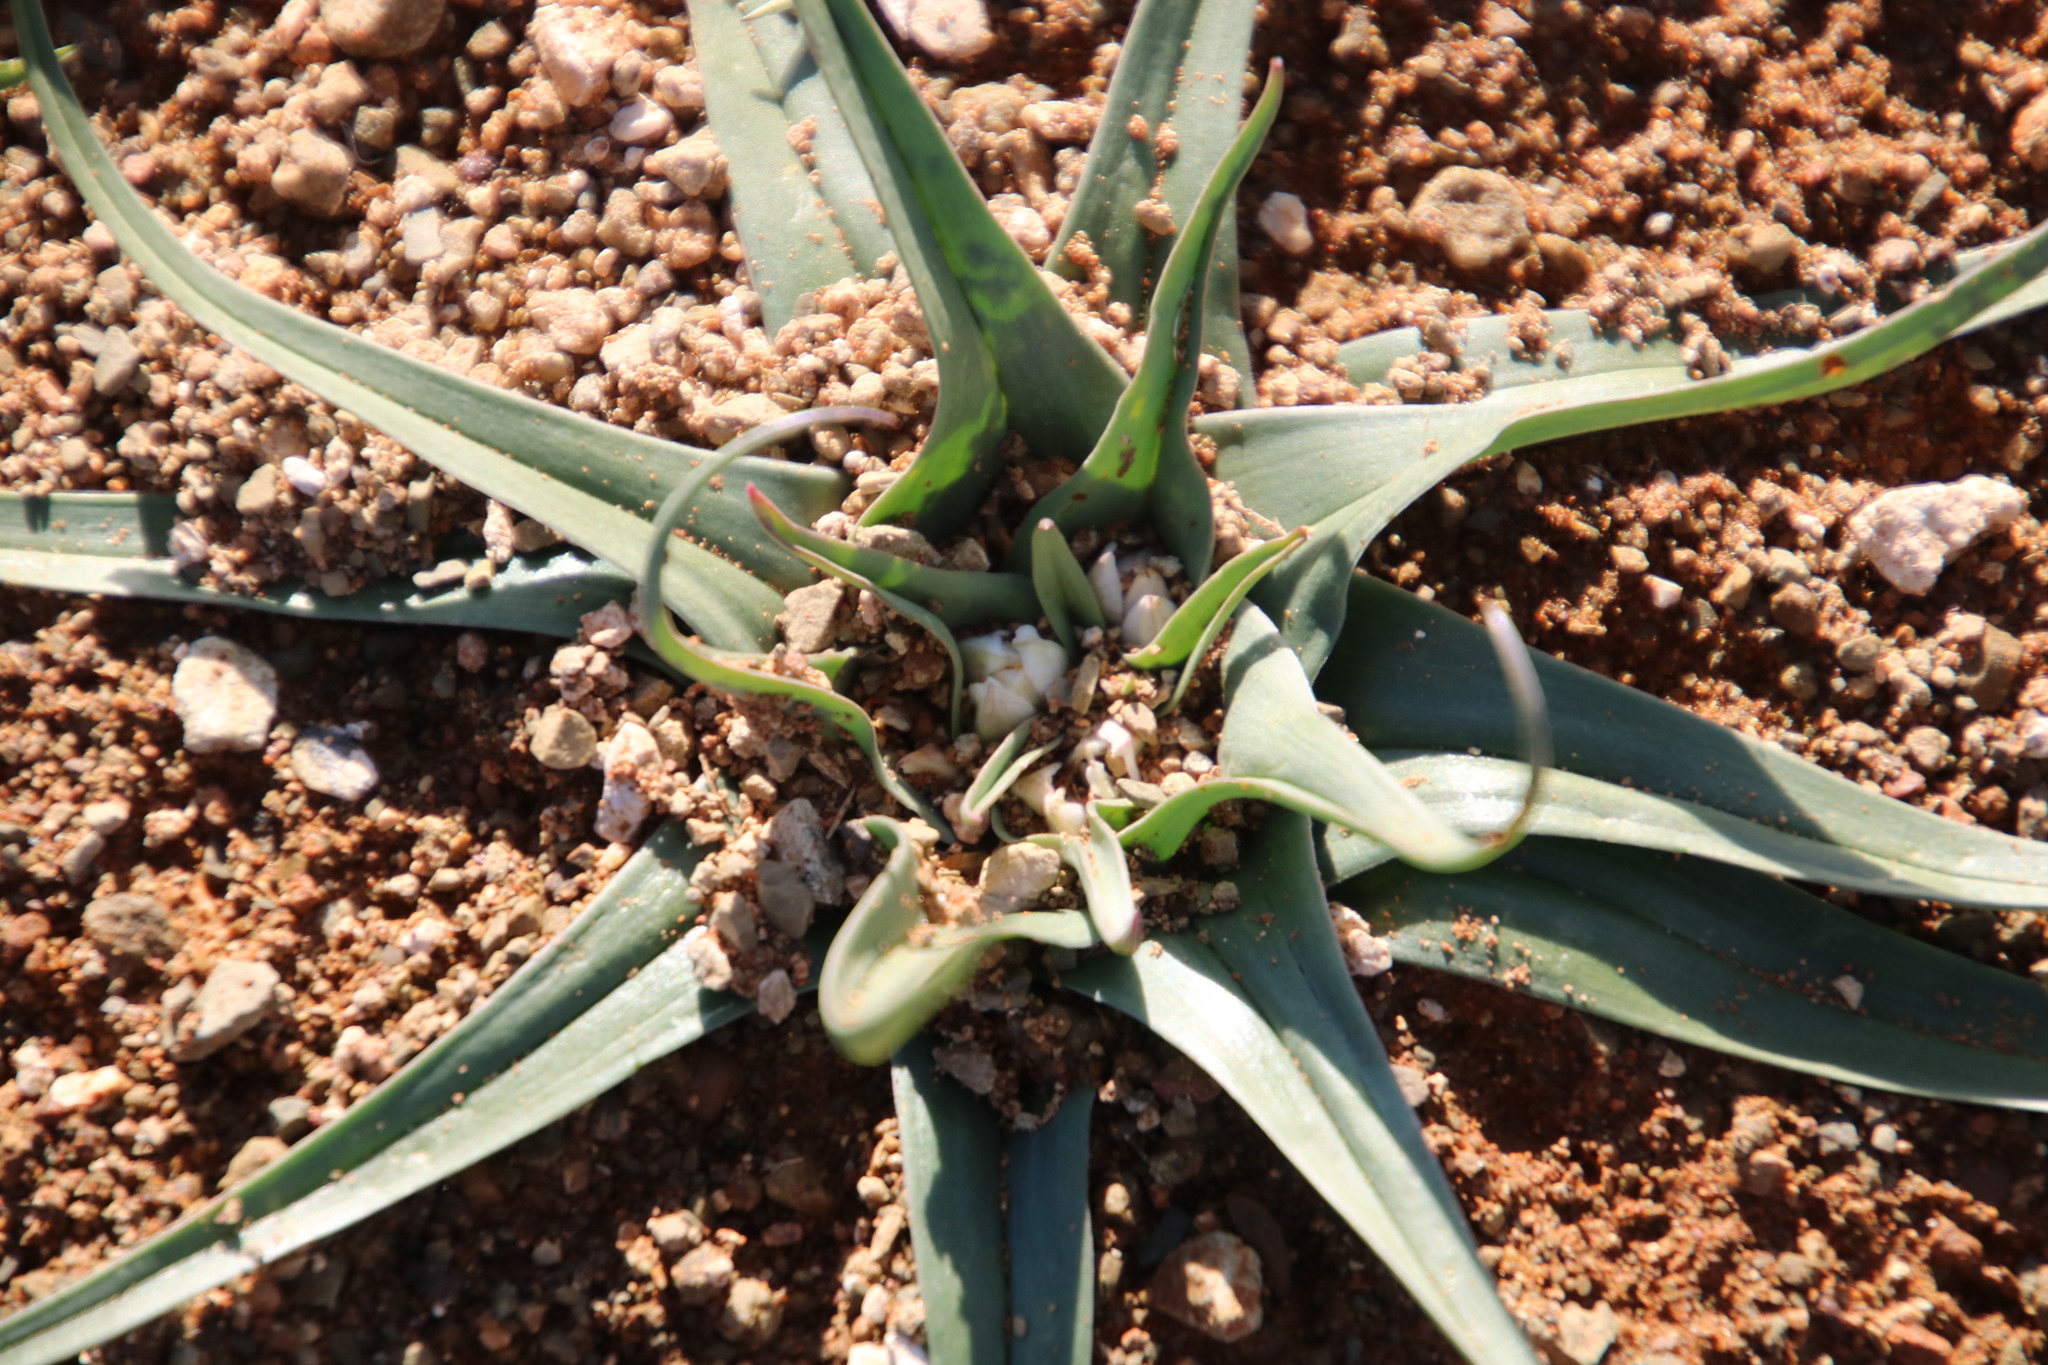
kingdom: Plantae
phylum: Tracheophyta
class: Liliopsida
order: Liliales
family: Colchicaceae
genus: Colchicum
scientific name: Colchicum asteroides
